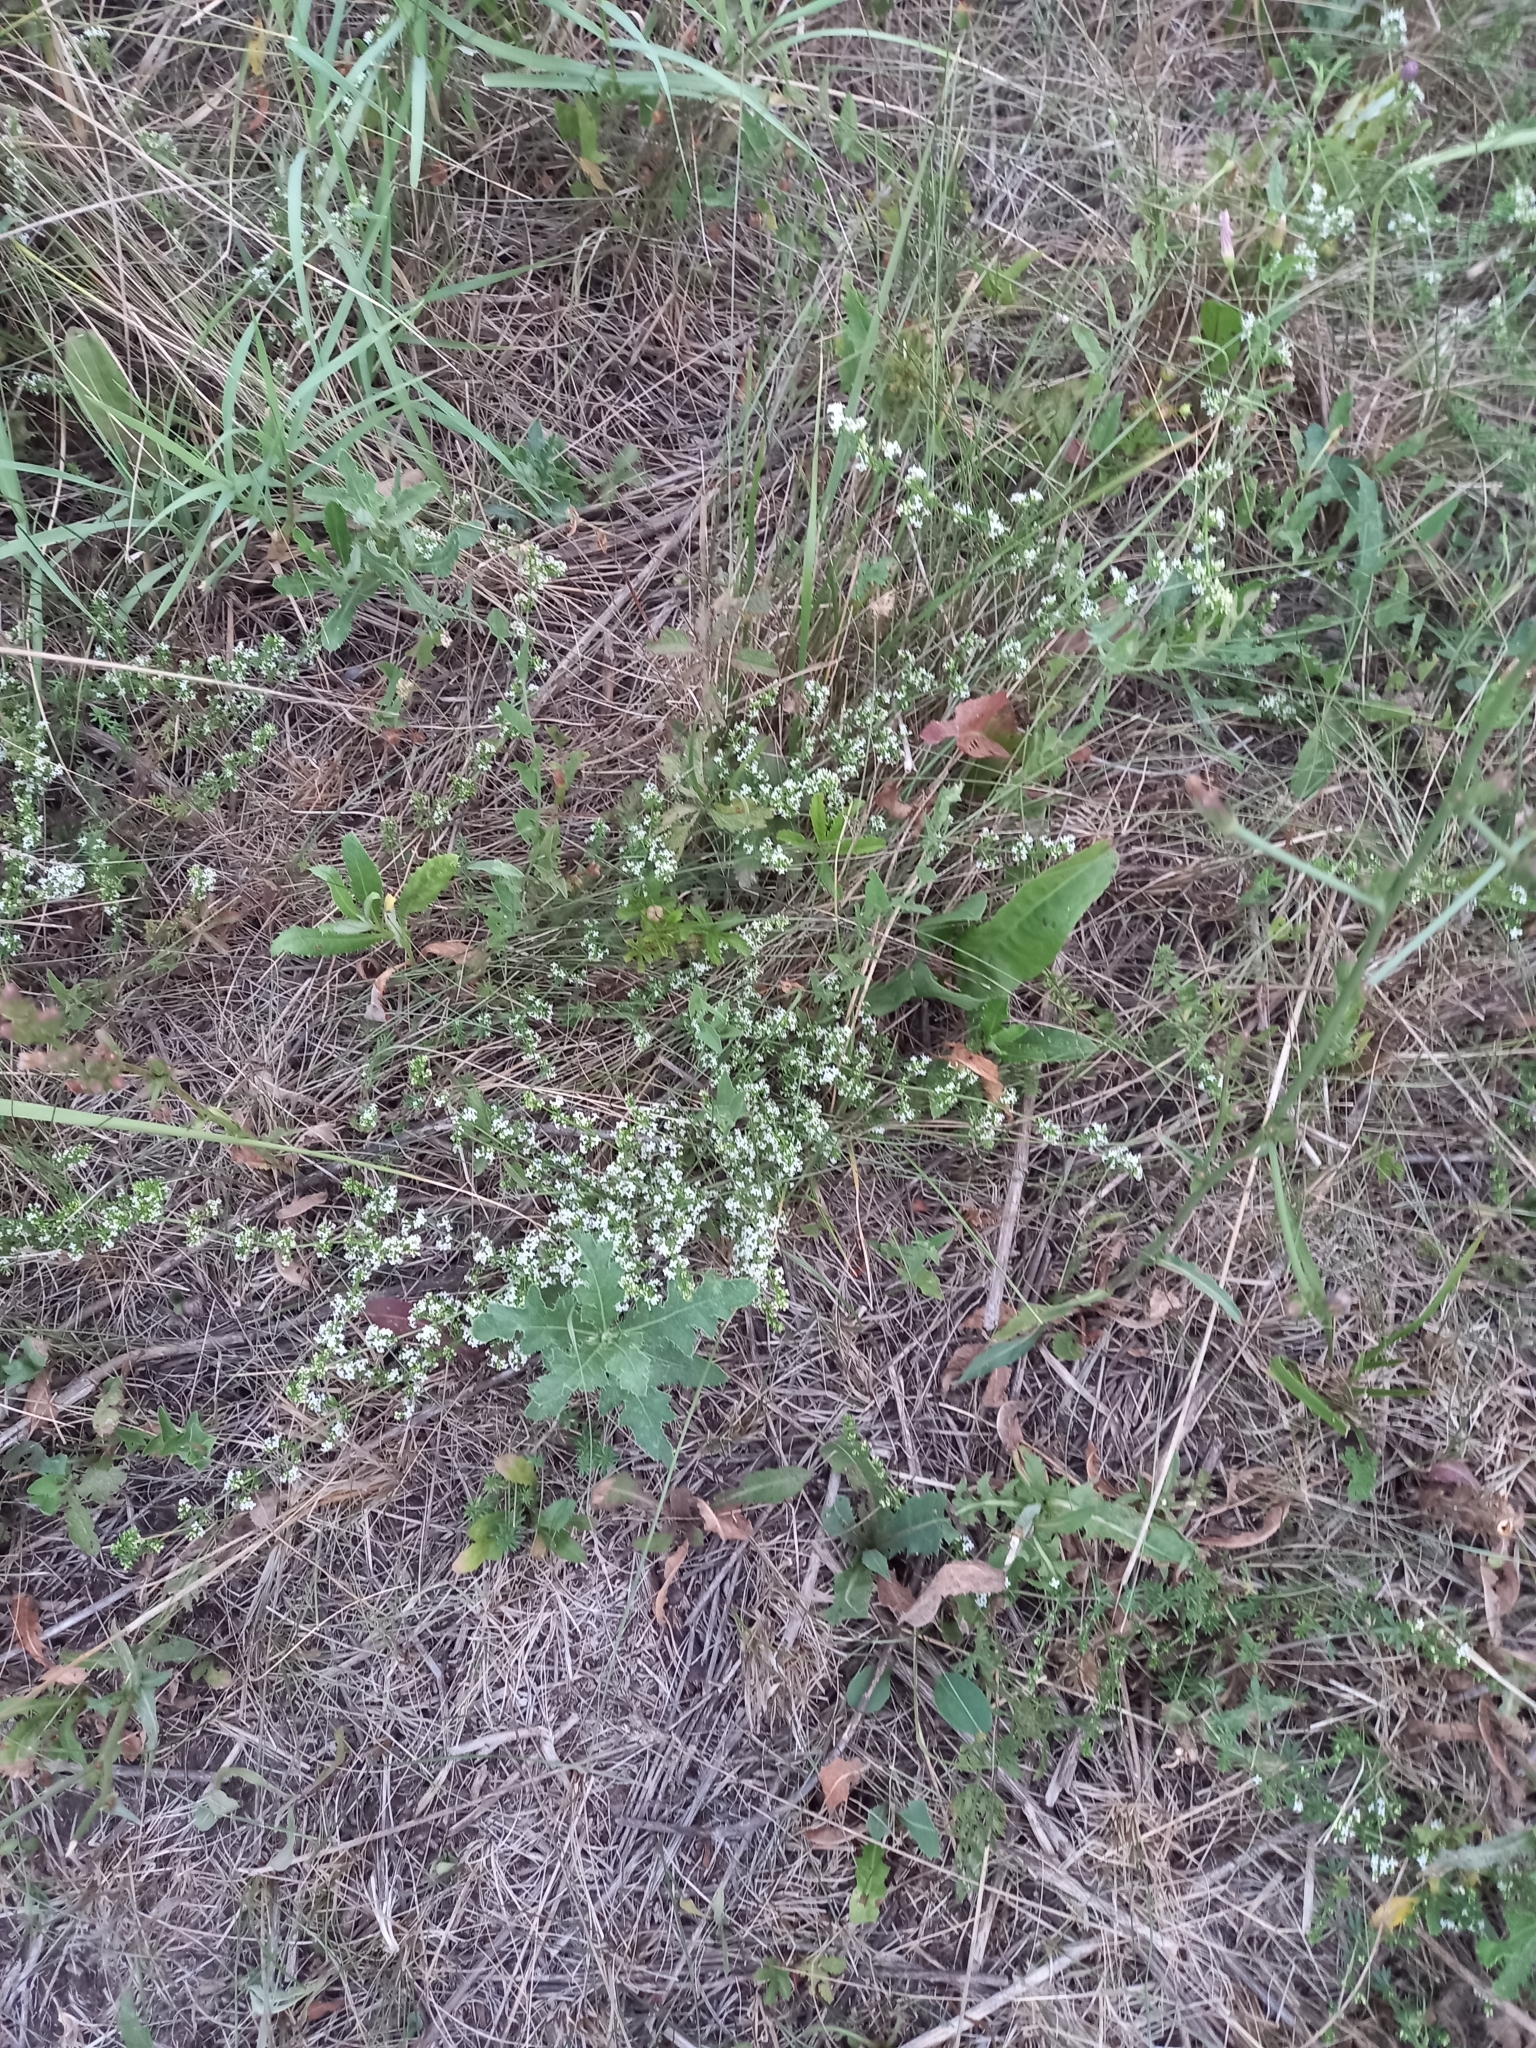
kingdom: Plantae
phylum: Tracheophyta
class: Magnoliopsida
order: Gentianales
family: Rubiaceae
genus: Galium
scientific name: Galium humifusum
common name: Spreading bedstraw
